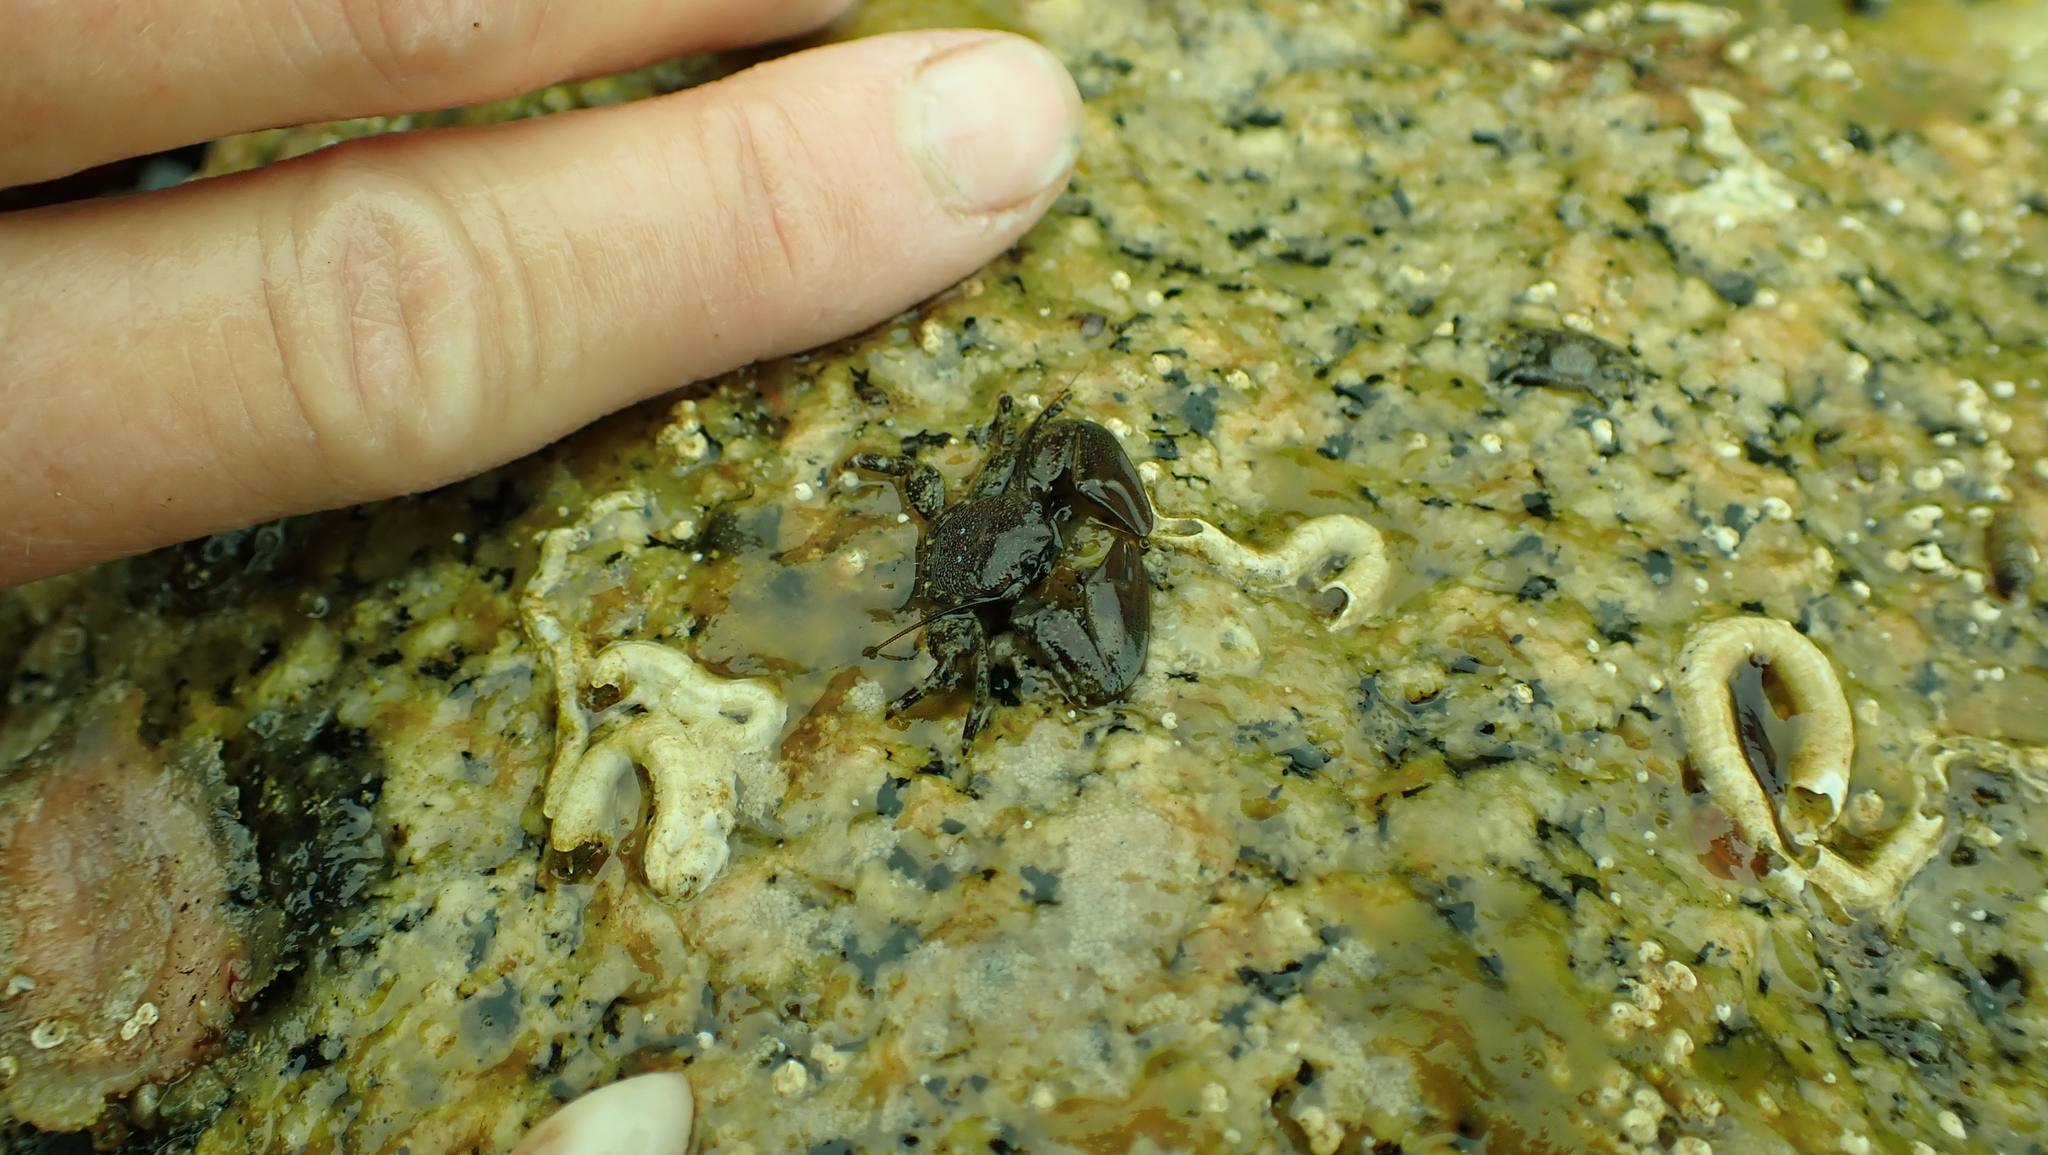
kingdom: Animalia
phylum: Arthropoda
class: Malacostraca
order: Decapoda
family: Porcellanidae
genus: Petrolisthes
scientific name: Petrolisthes eriomerus
